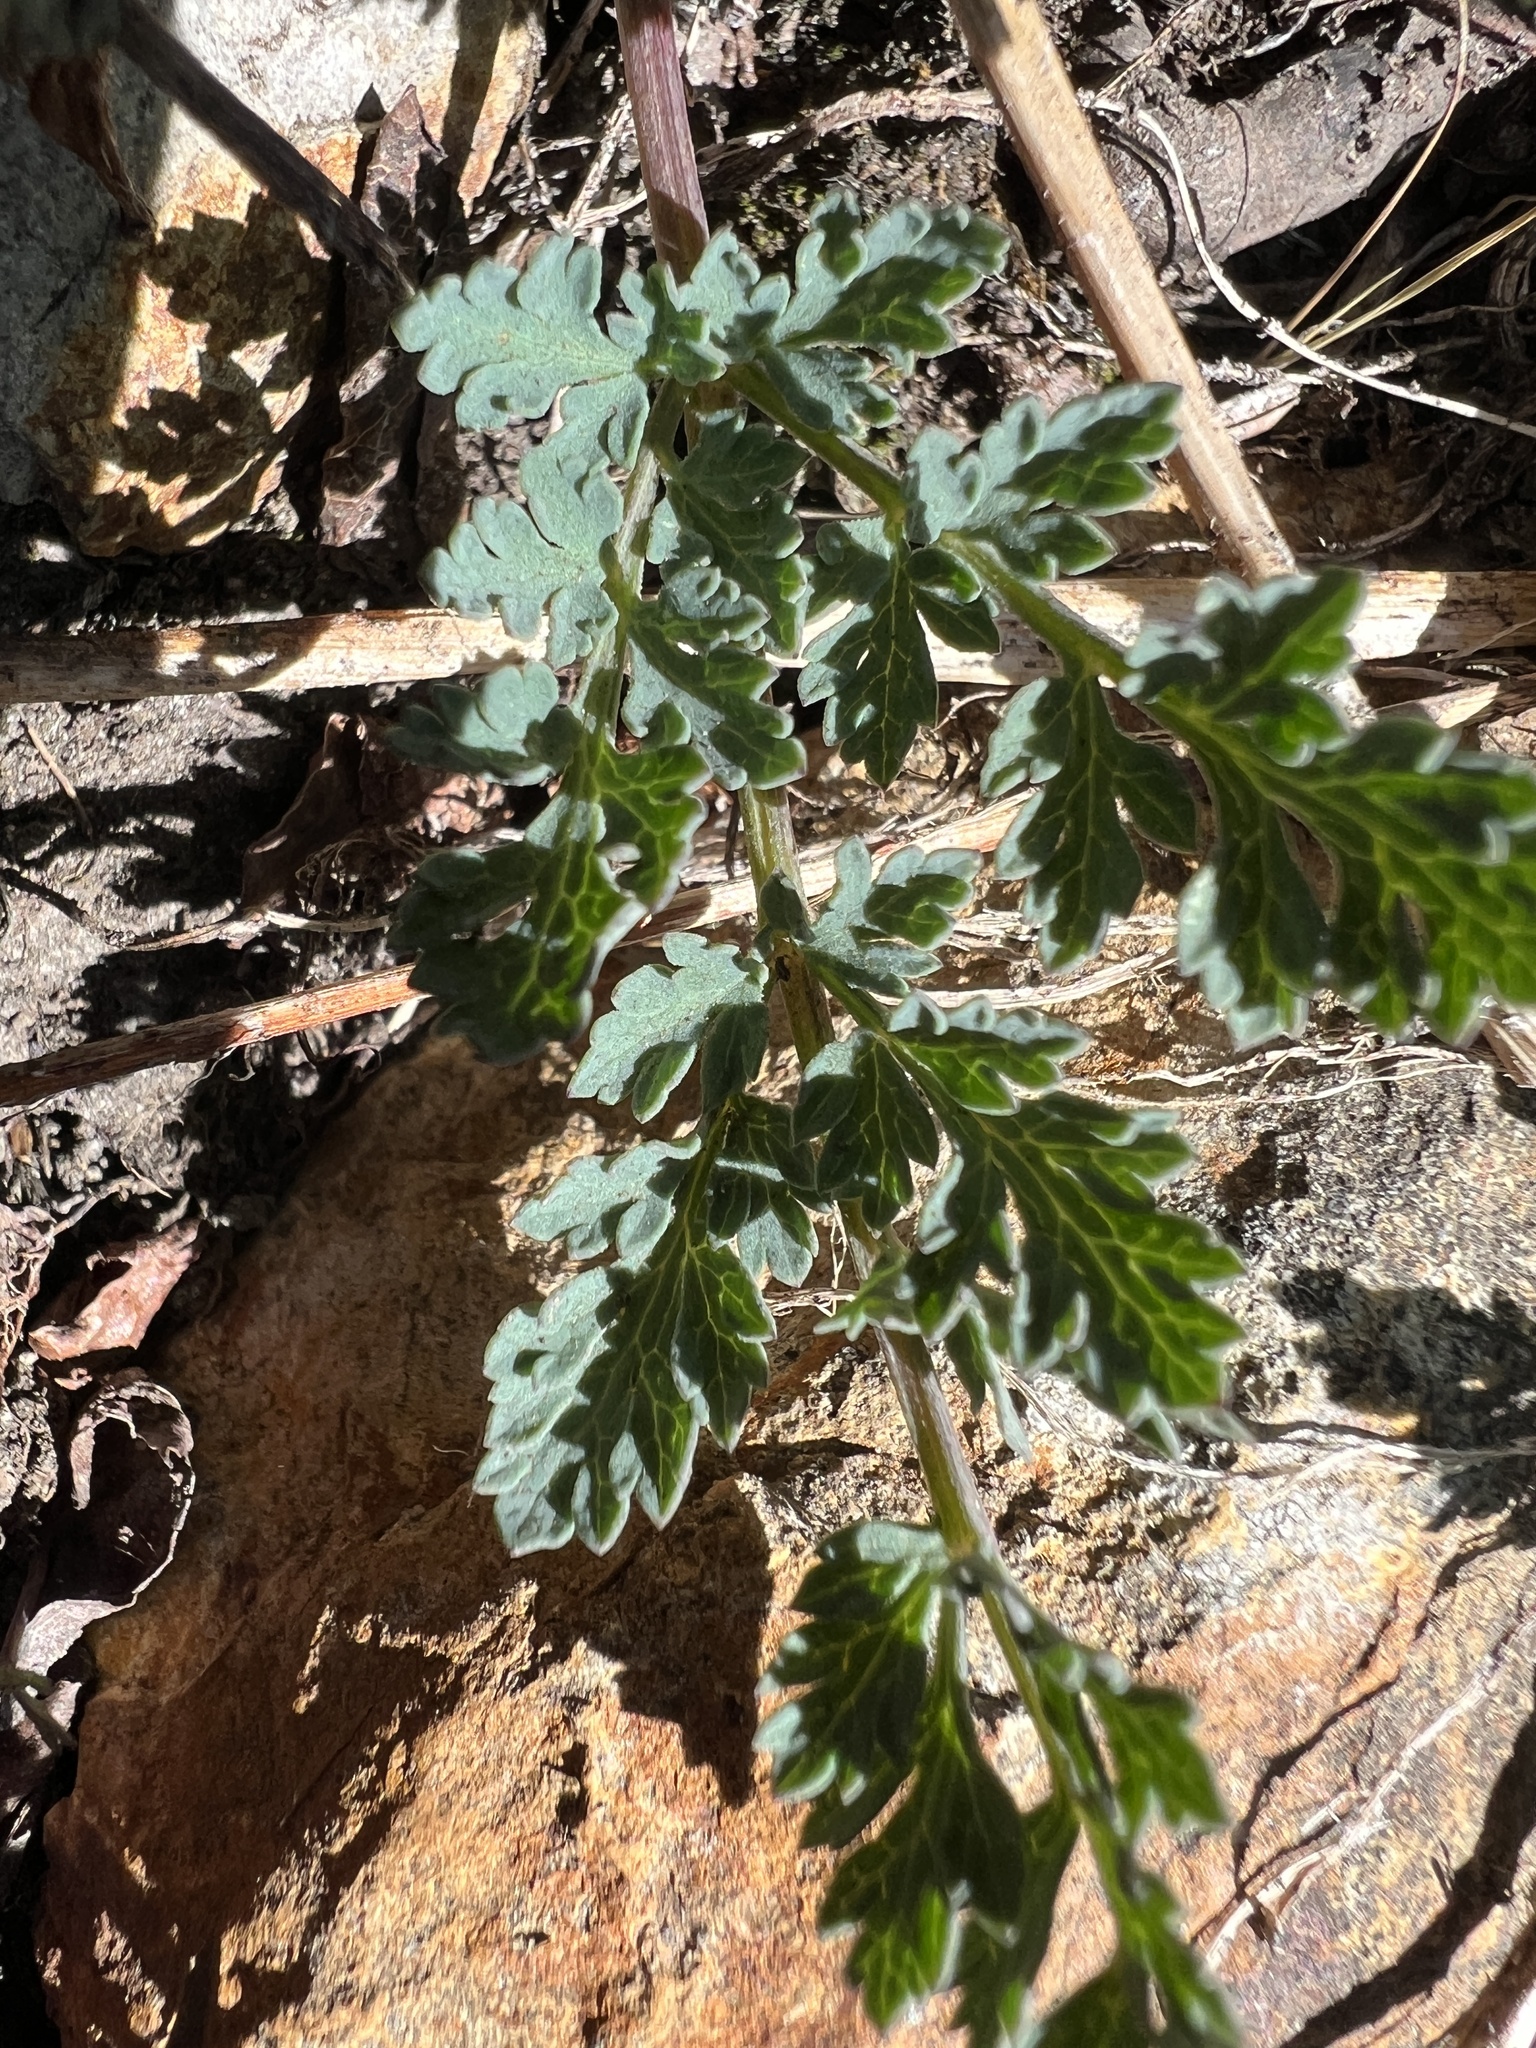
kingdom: Plantae
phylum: Tracheophyta
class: Magnoliopsida
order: Apiales
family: Apiaceae
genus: Lomatium
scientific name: Lomatium martindalei
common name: Cascade desert-parsley
